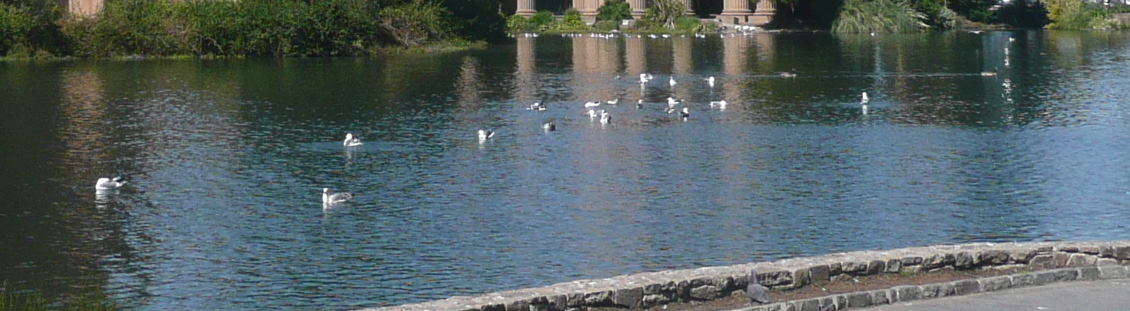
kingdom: Animalia
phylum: Chordata
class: Aves
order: Charadriiformes
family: Laridae
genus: Larus
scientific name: Larus occidentalis
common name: Western gull
